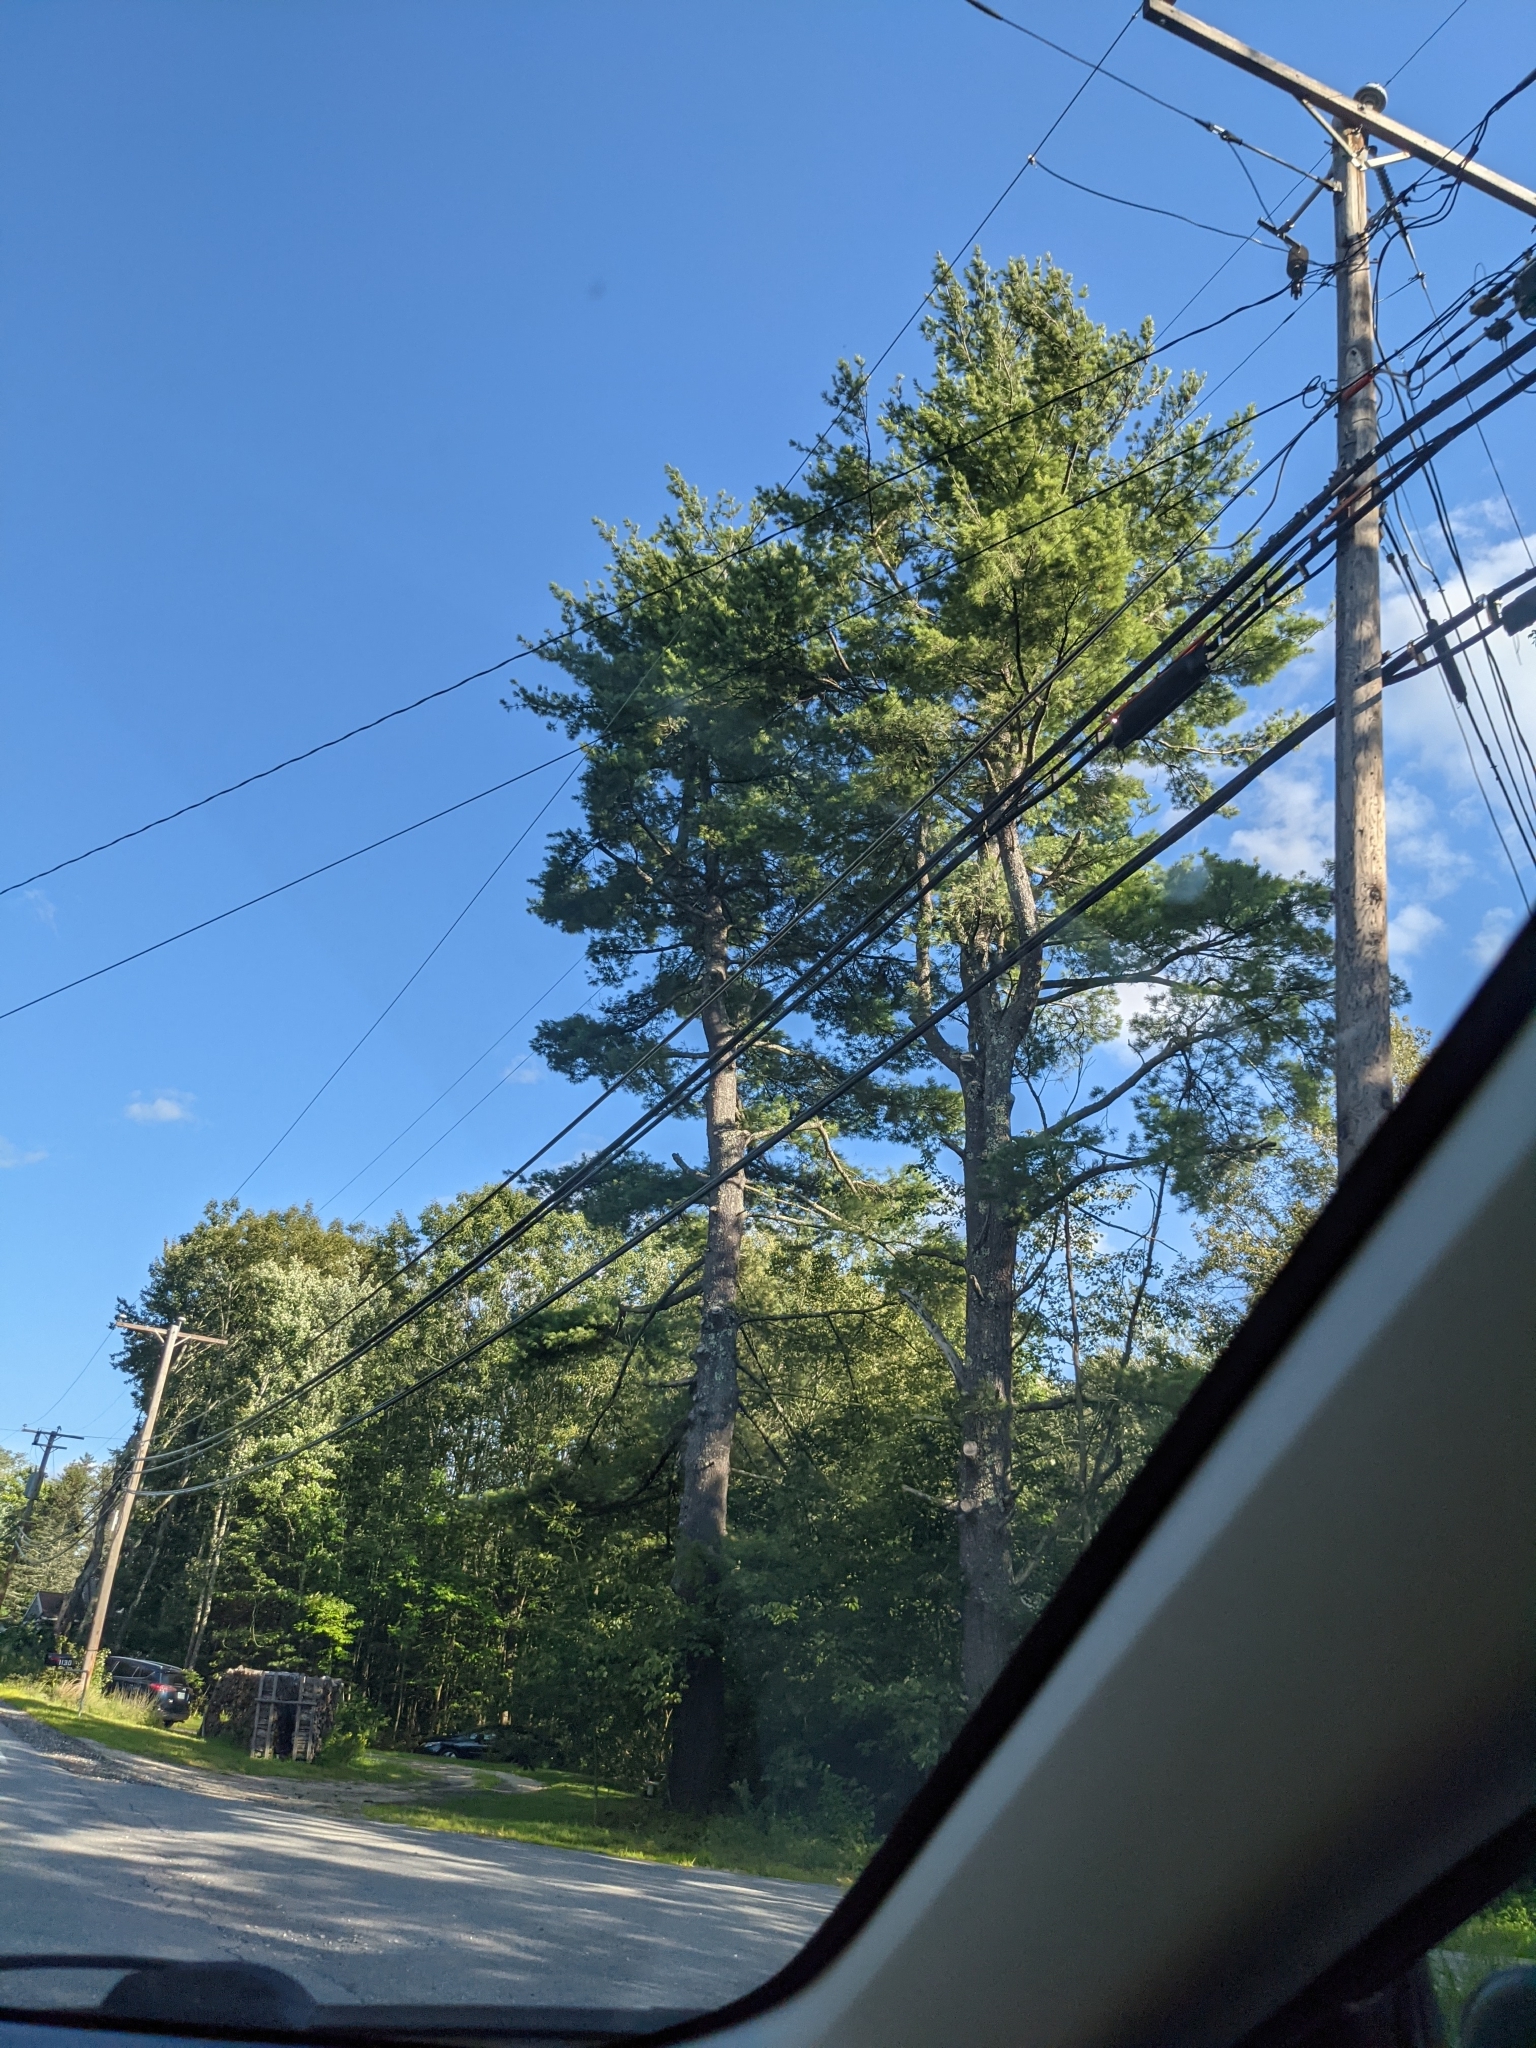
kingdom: Plantae
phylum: Tracheophyta
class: Pinopsida
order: Pinales
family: Pinaceae
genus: Pinus
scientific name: Pinus strobus
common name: Weymouth pine
